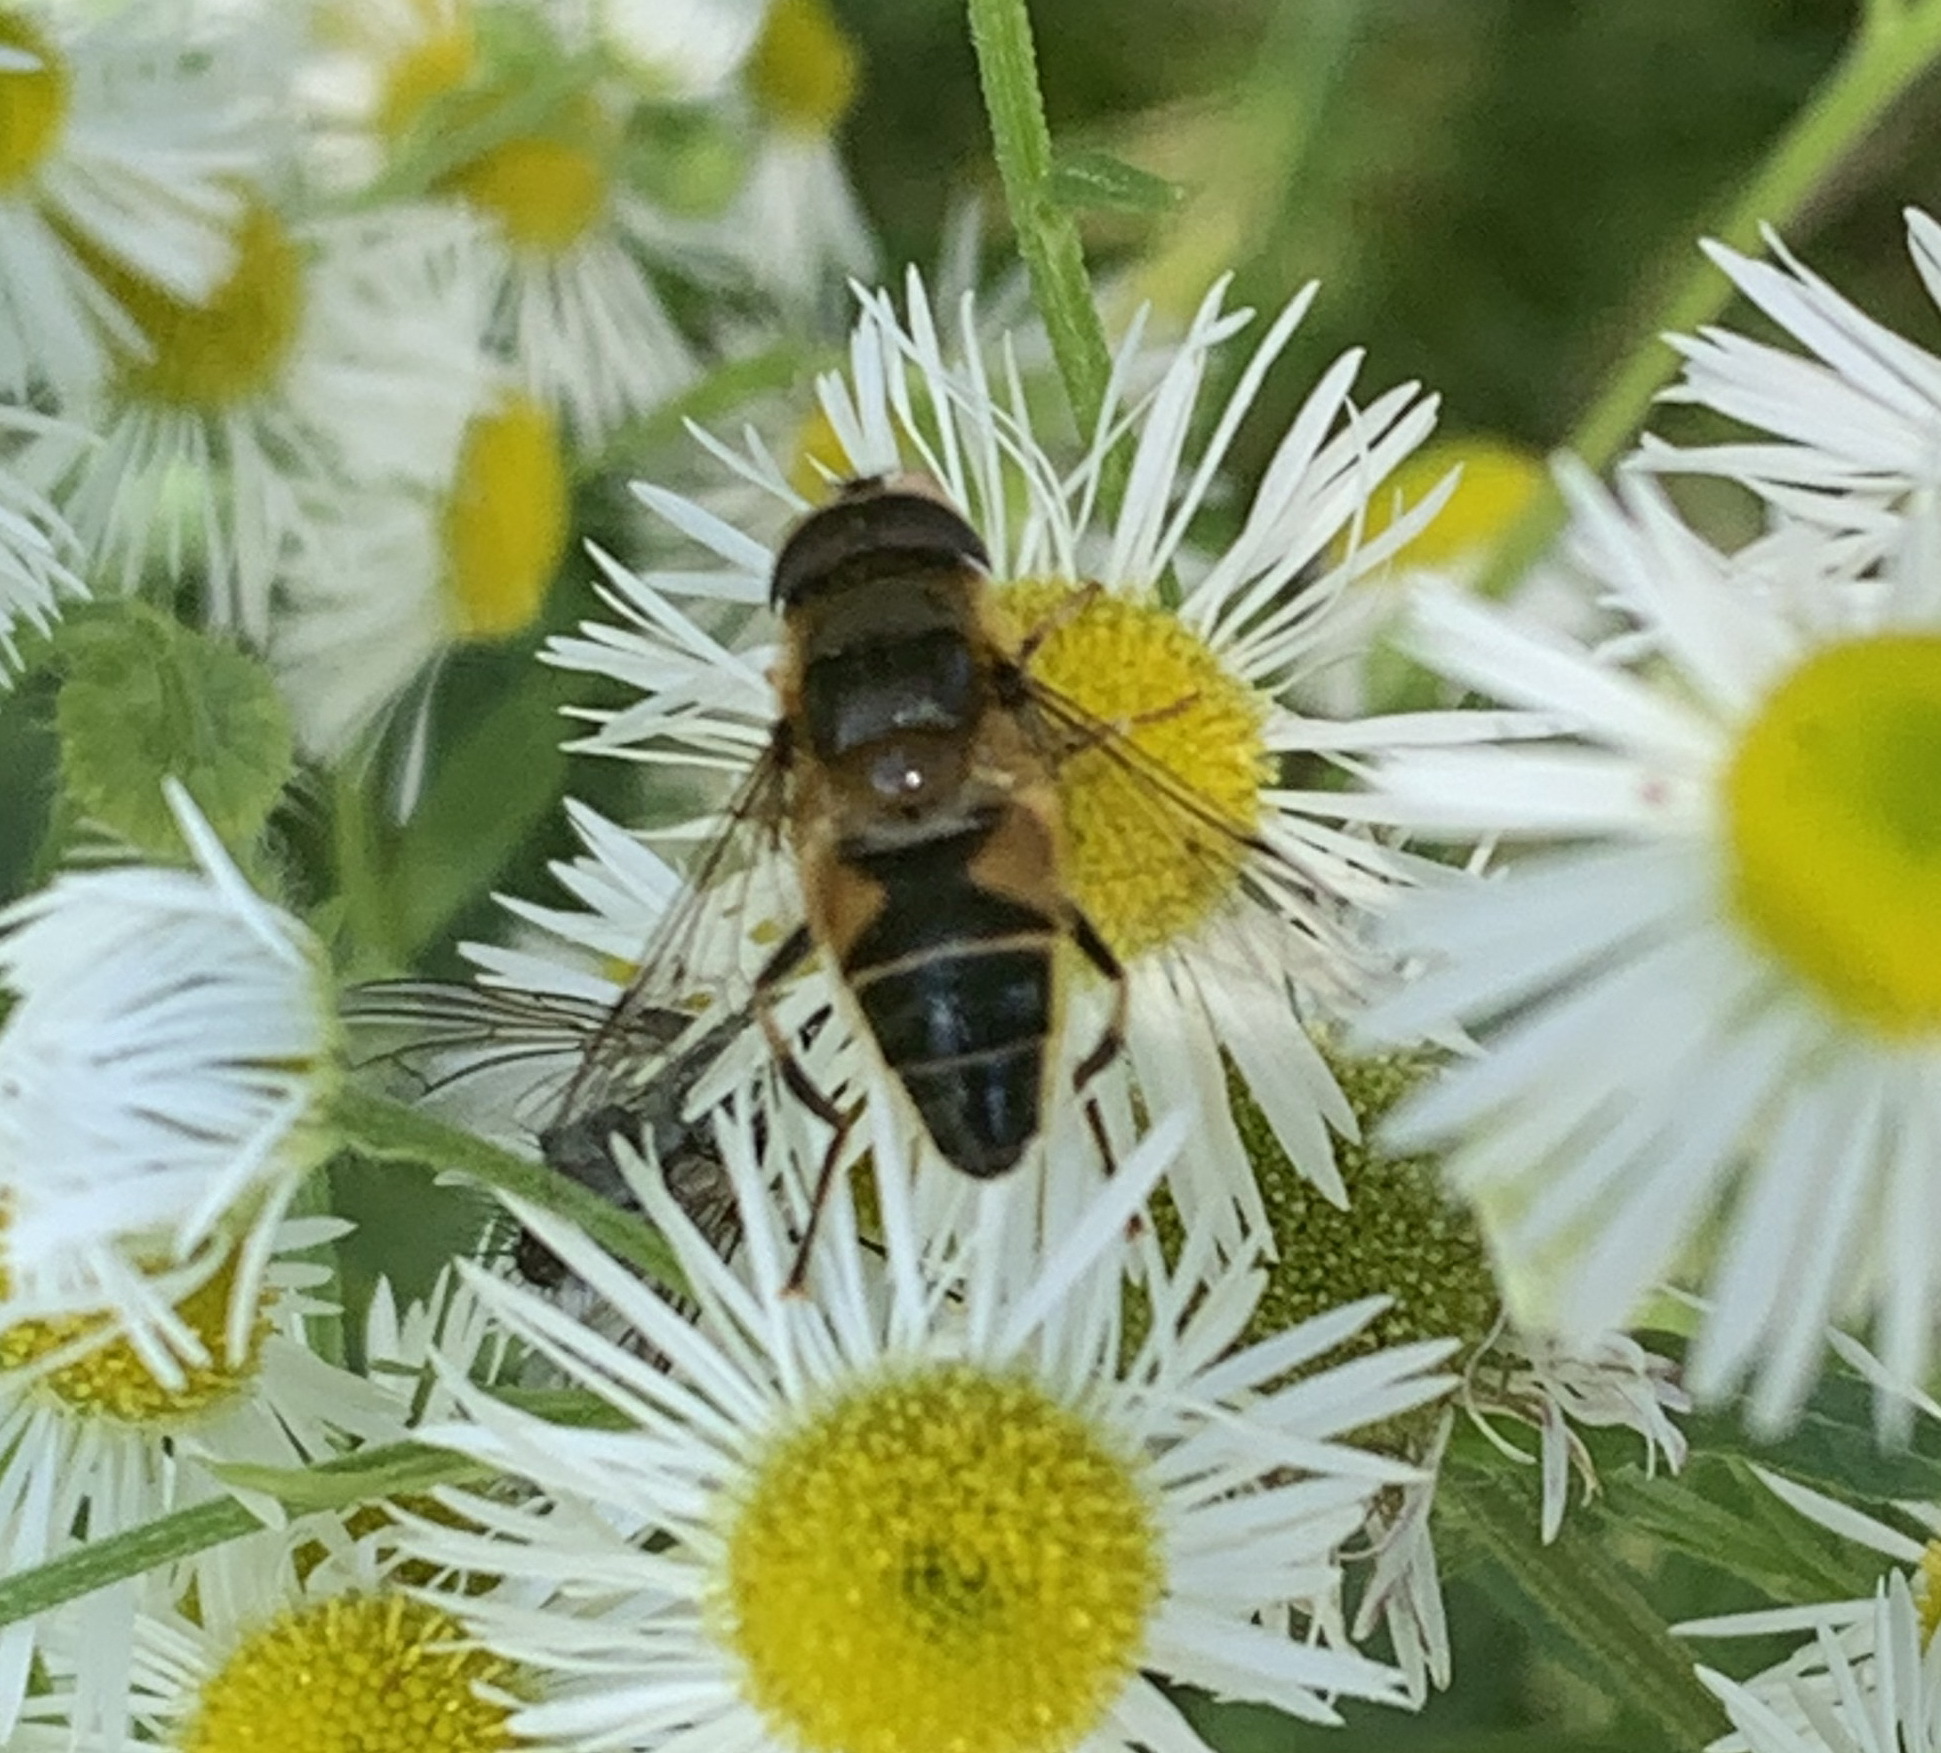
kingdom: Animalia
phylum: Arthropoda
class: Insecta
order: Diptera
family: Syrphidae
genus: Eristalis
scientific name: Eristalis pertinax
